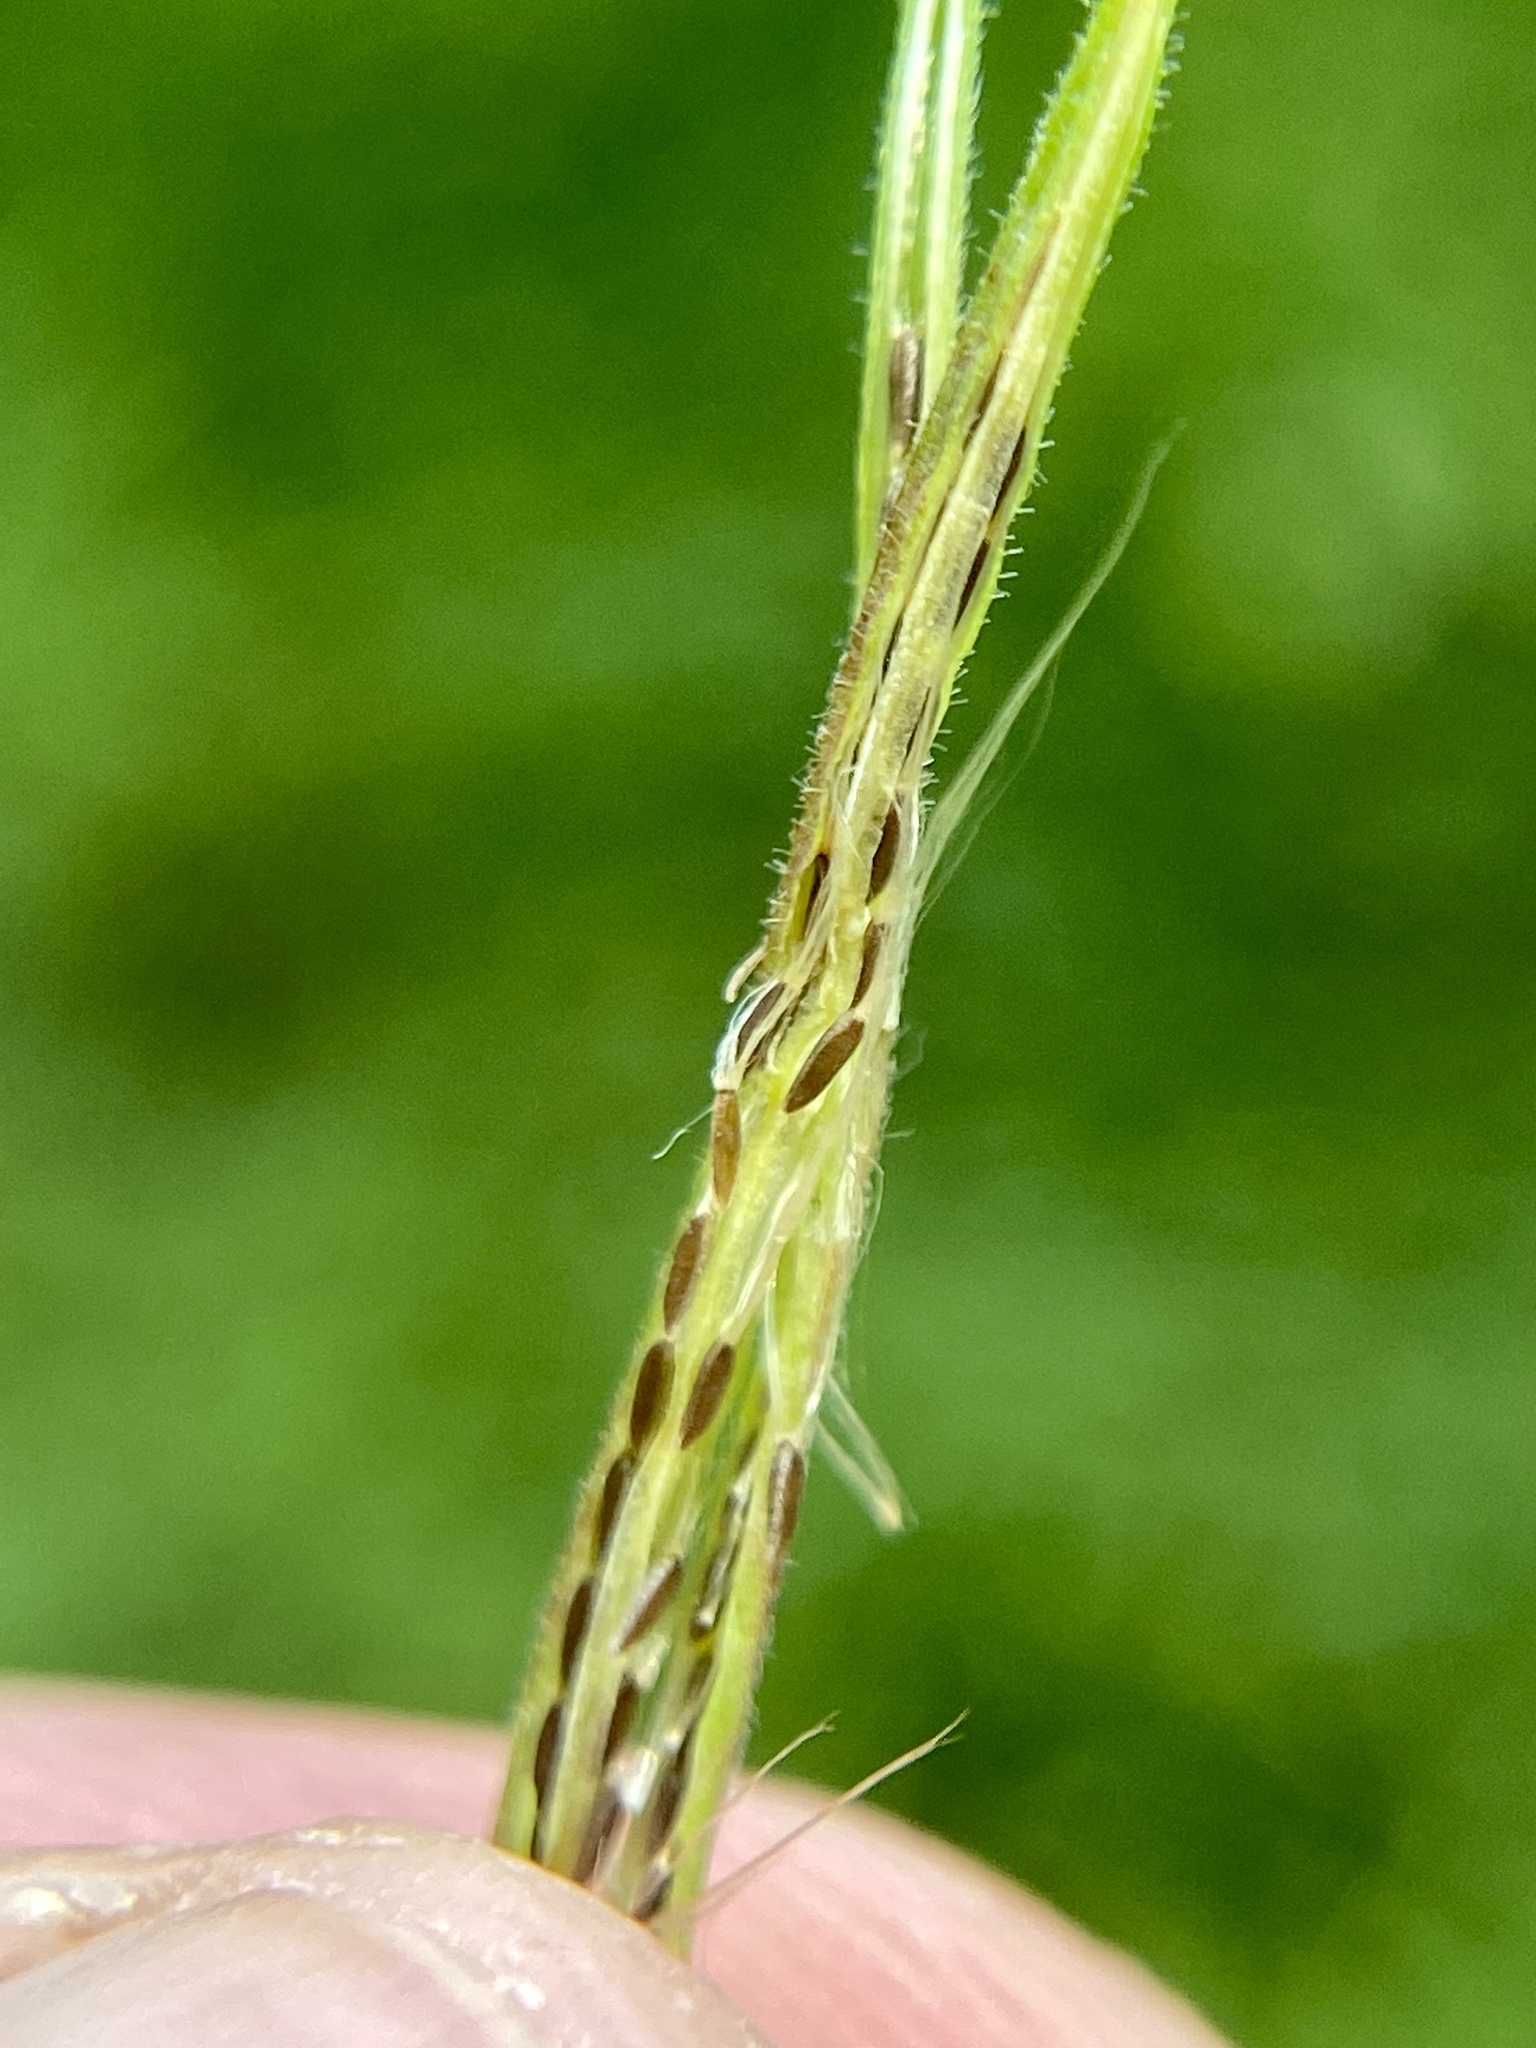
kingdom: Plantae
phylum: Tracheophyta
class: Magnoliopsida
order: Myrtales
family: Onagraceae
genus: Epilobium
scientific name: Epilobium coloratum
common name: Bronze willowherb
